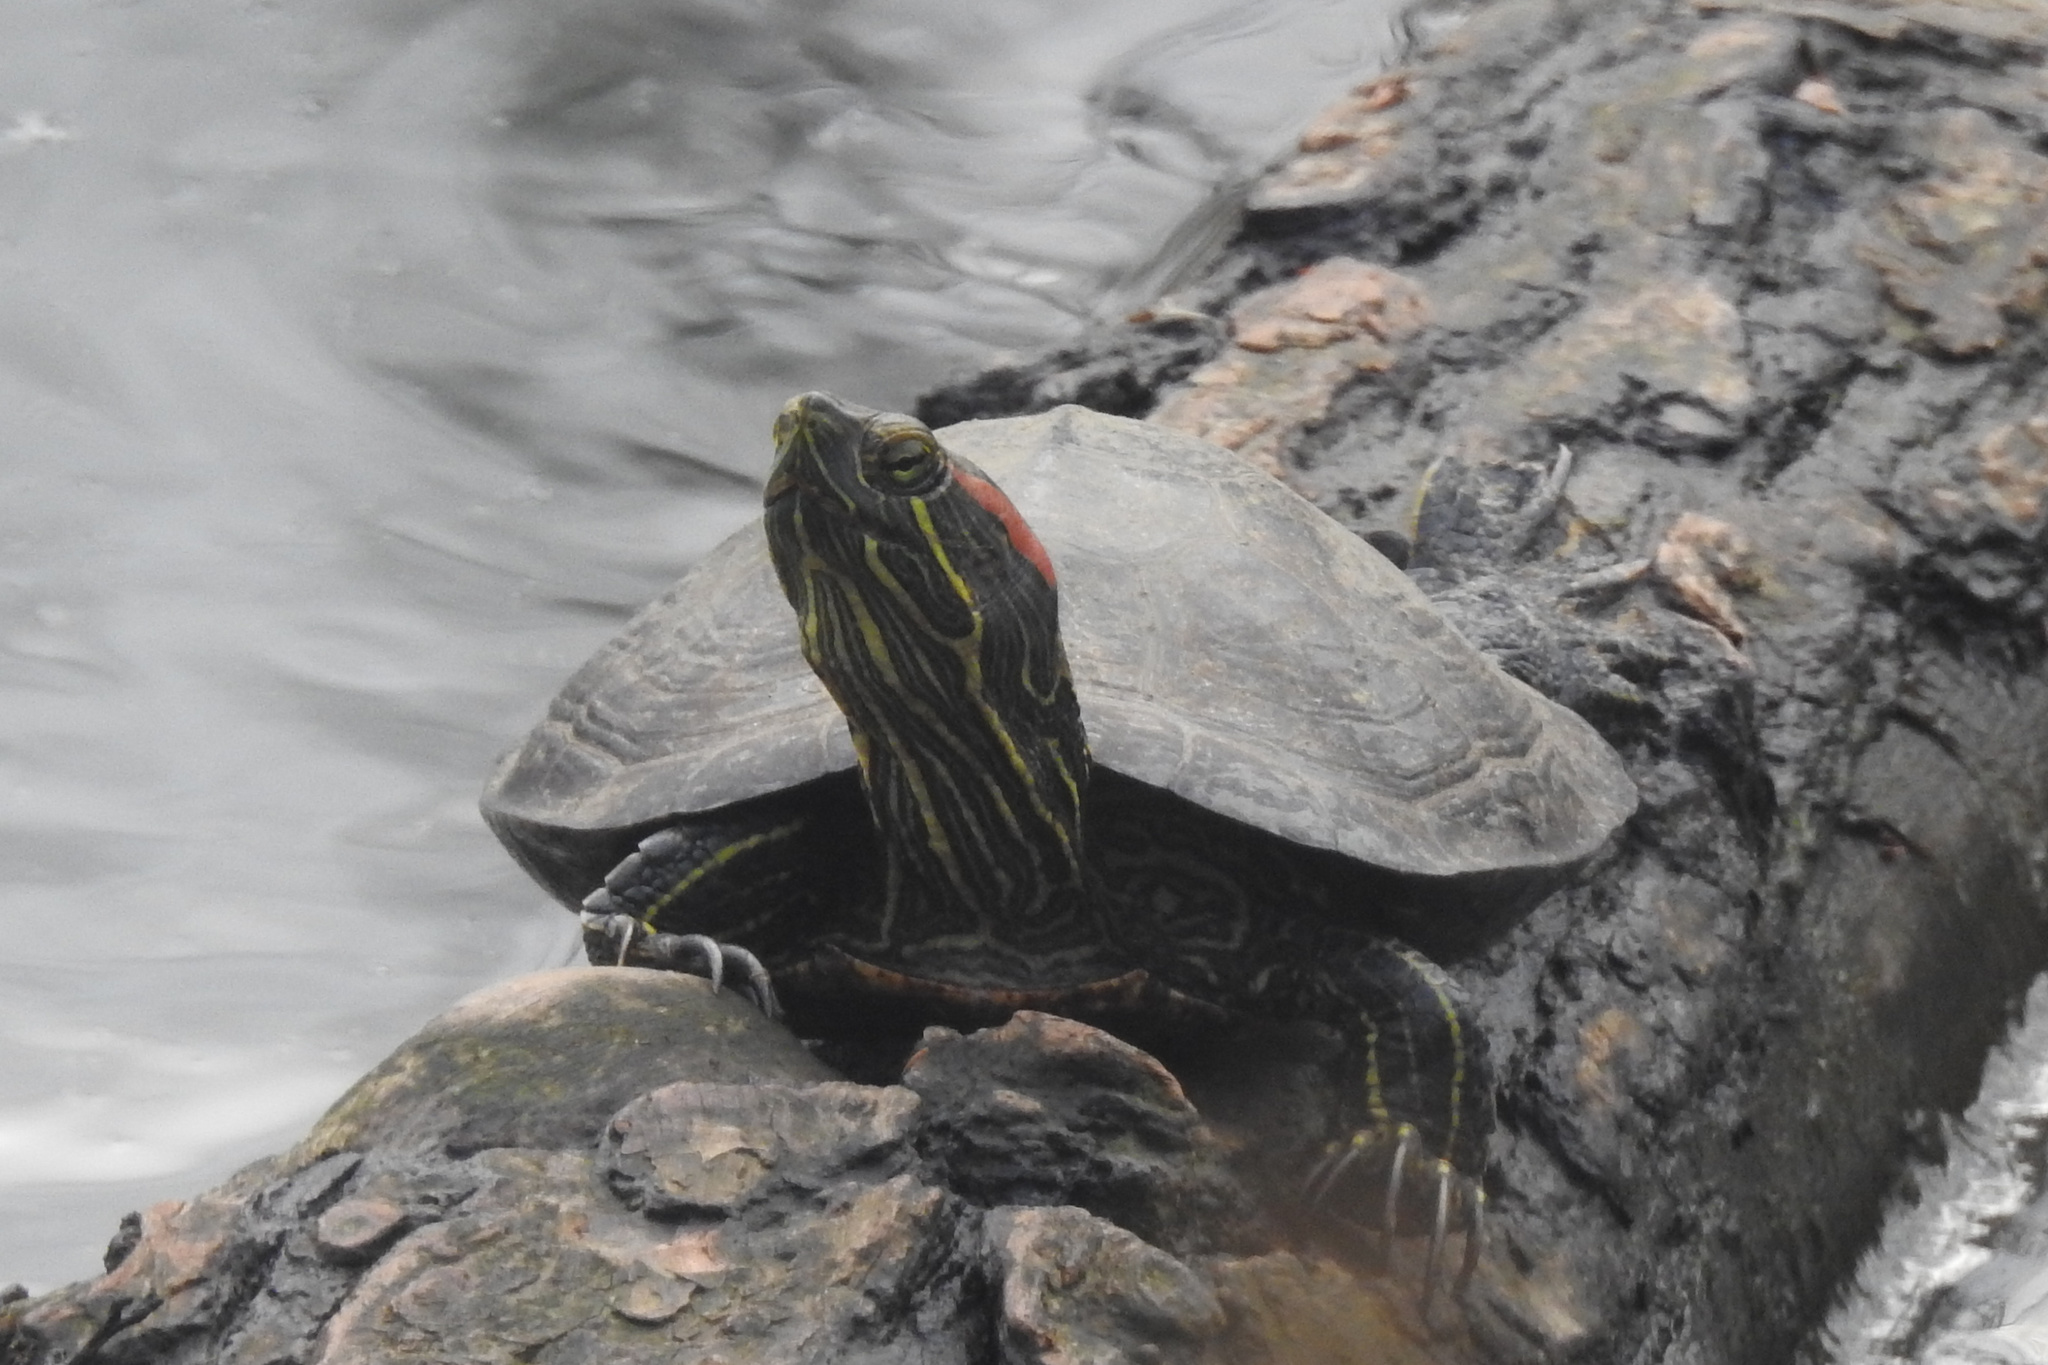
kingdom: Animalia
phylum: Chordata
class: Testudines
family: Emydidae
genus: Trachemys
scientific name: Trachemys scripta
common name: Slider
